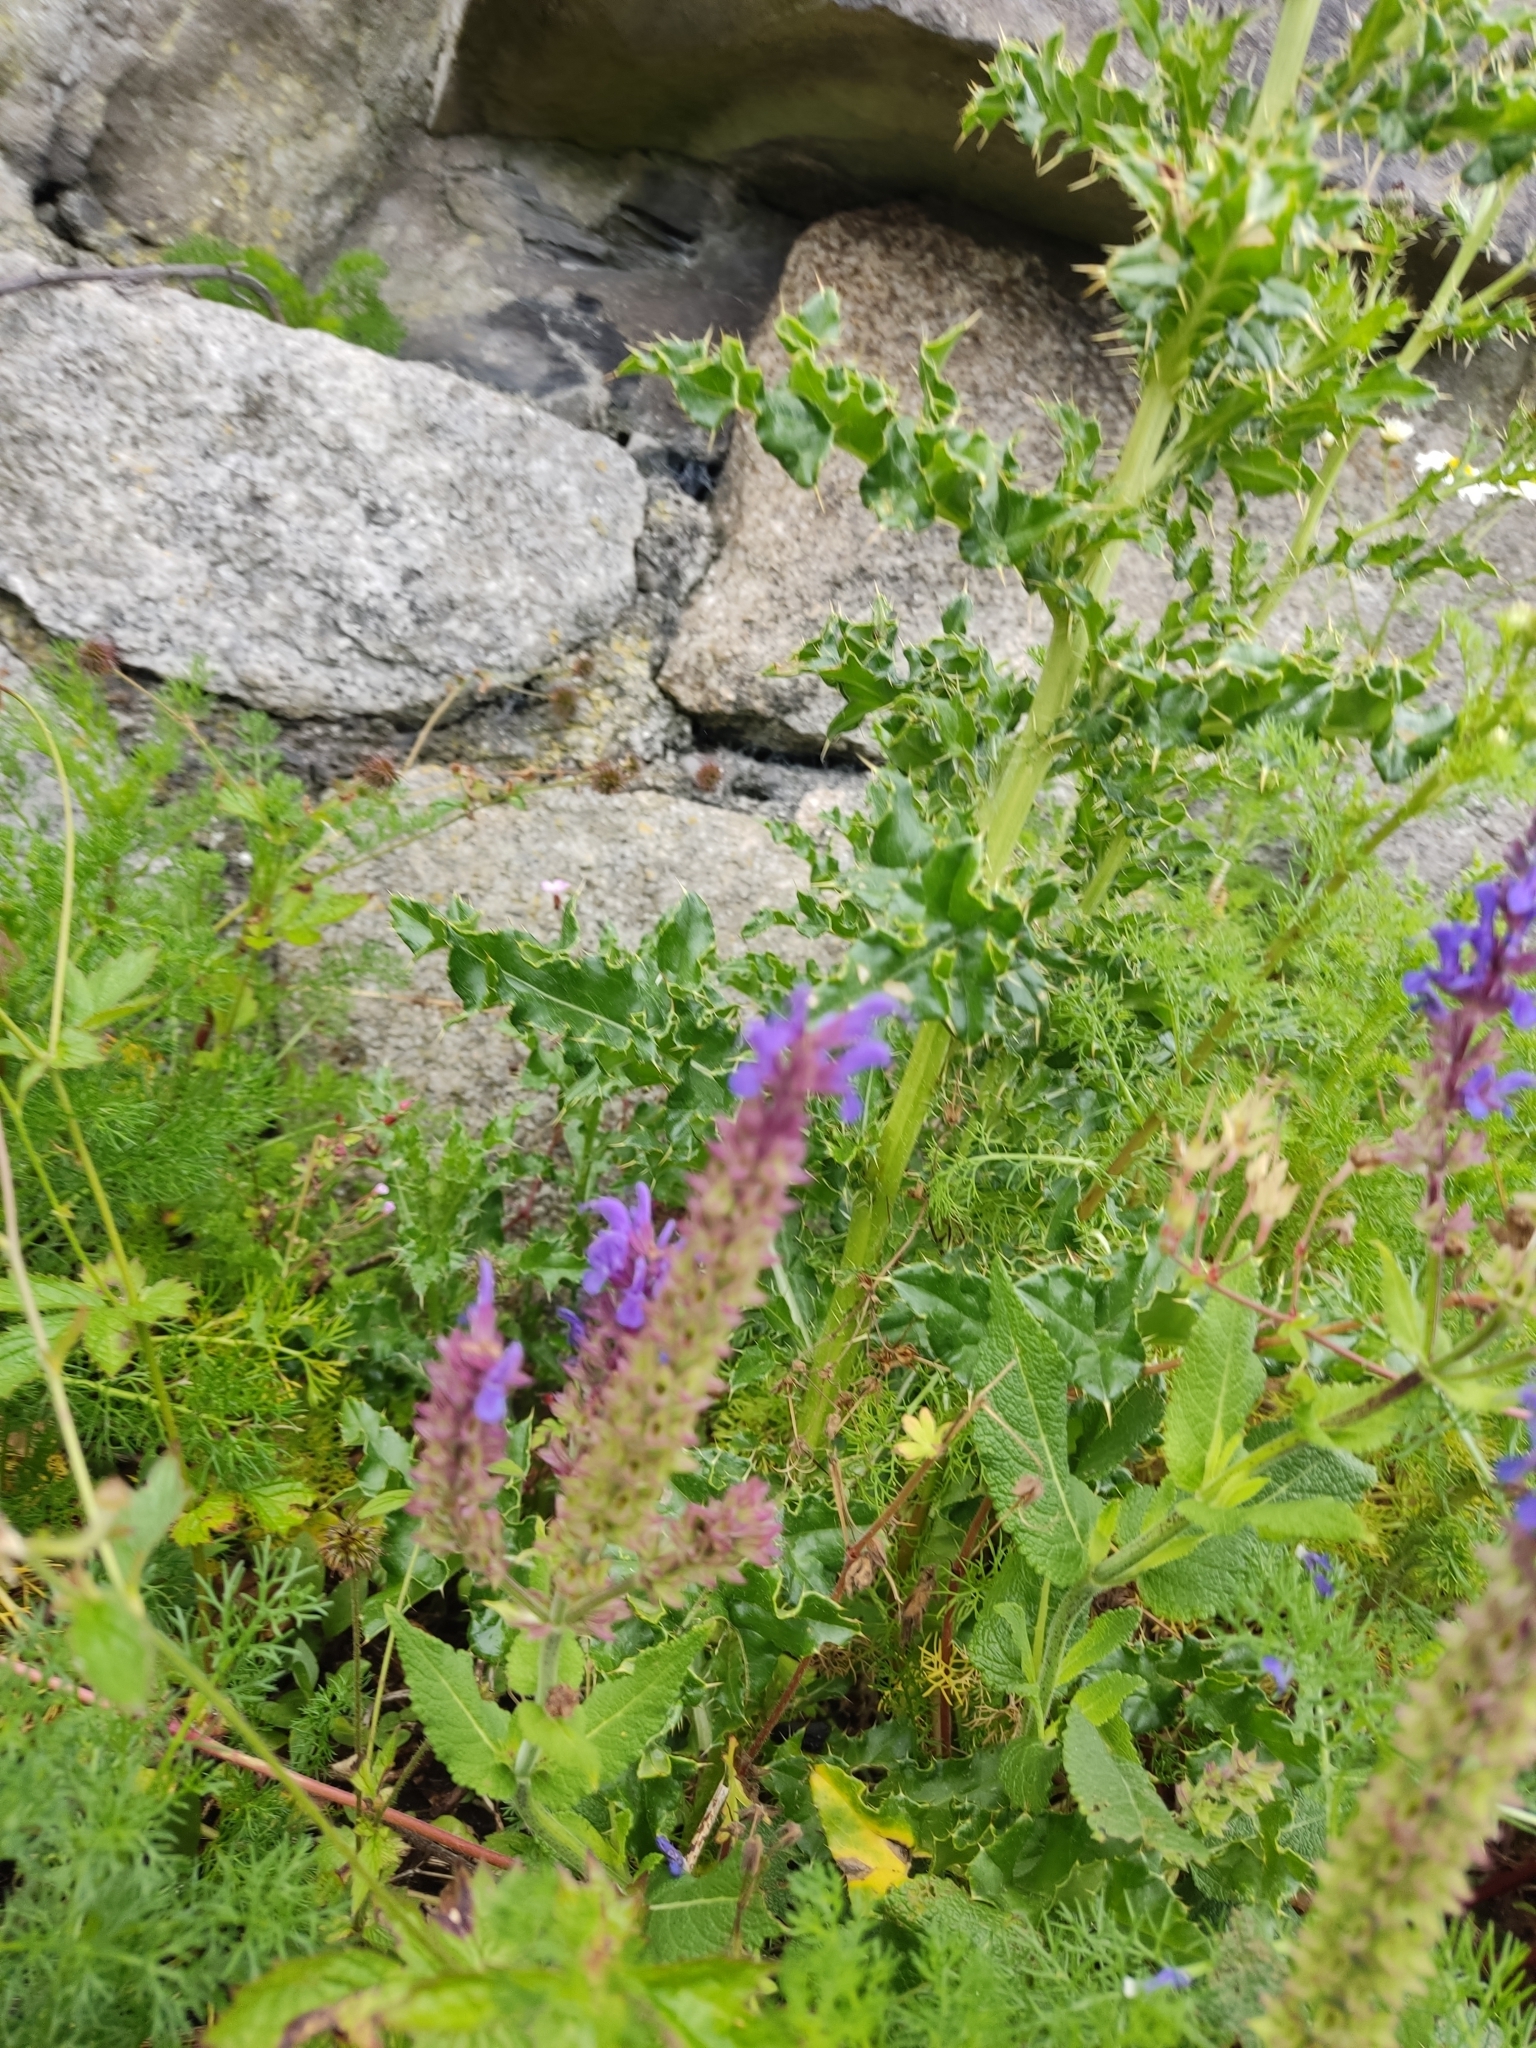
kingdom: Plantae
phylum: Tracheophyta
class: Magnoliopsida
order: Lamiales
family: Lamiaceae
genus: Salvia
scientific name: Salvia nemorosa
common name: Balkan clary
